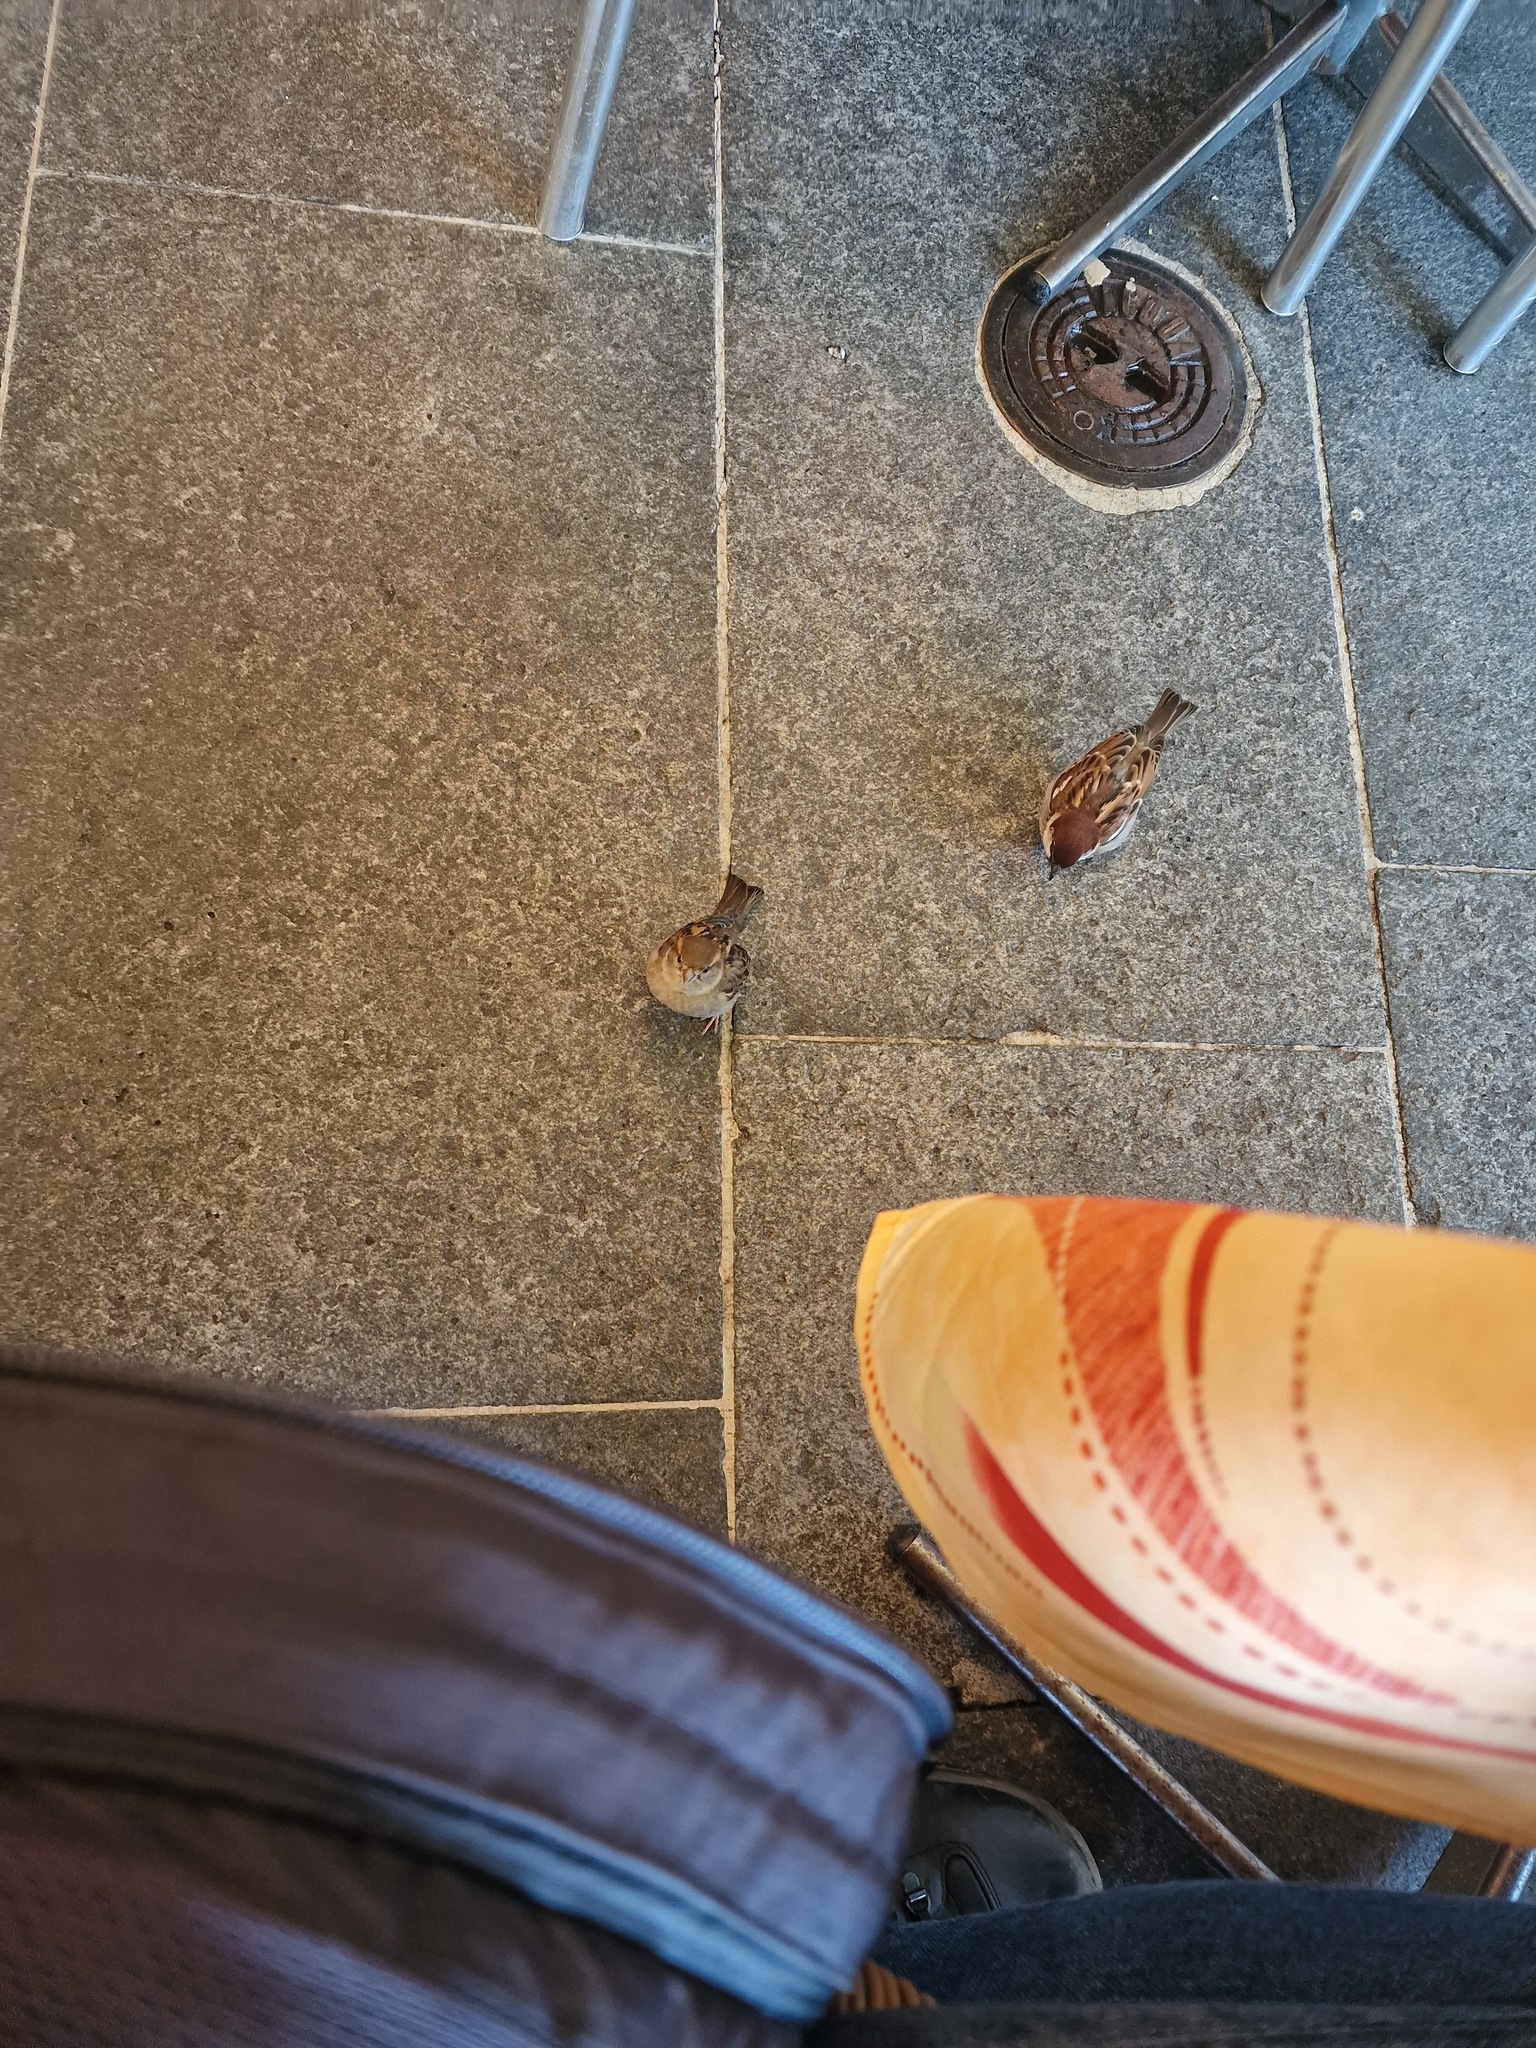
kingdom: Animalia
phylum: Chordata
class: Aves
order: Passeriformes
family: Passeridae
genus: Passer
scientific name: Passer italiae
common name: Italian sparrow
